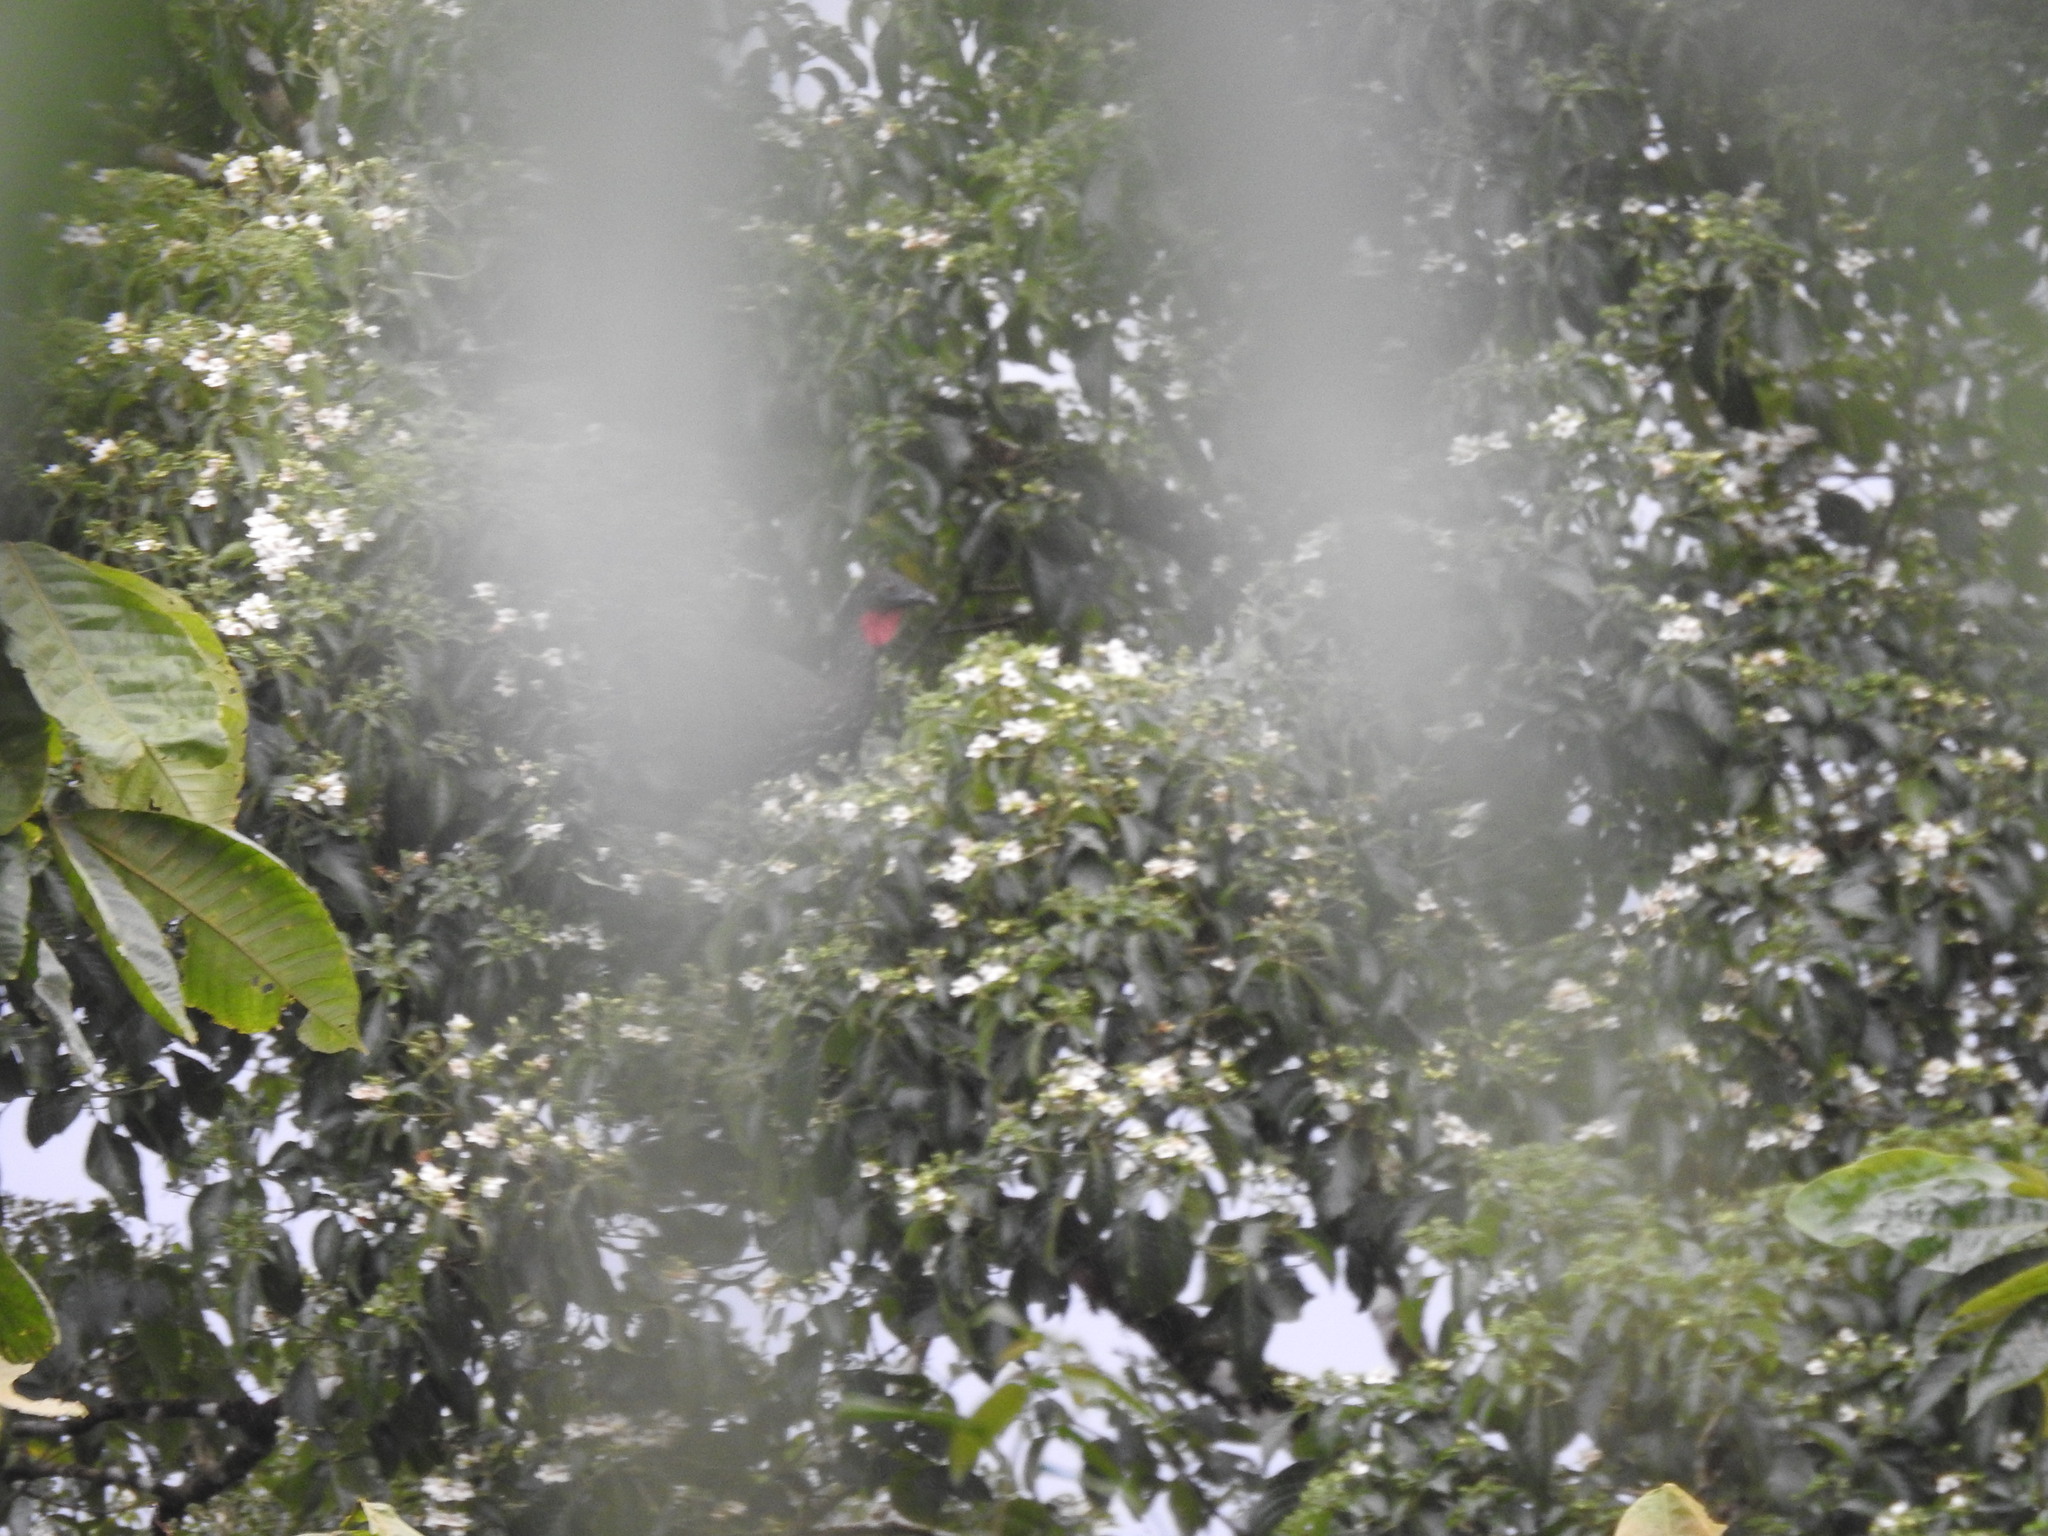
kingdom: Animalia
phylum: Chordata
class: Aves
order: Galliformes
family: Cracidae
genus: Penelope
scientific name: Penelope purpurascens
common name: Crested guan
